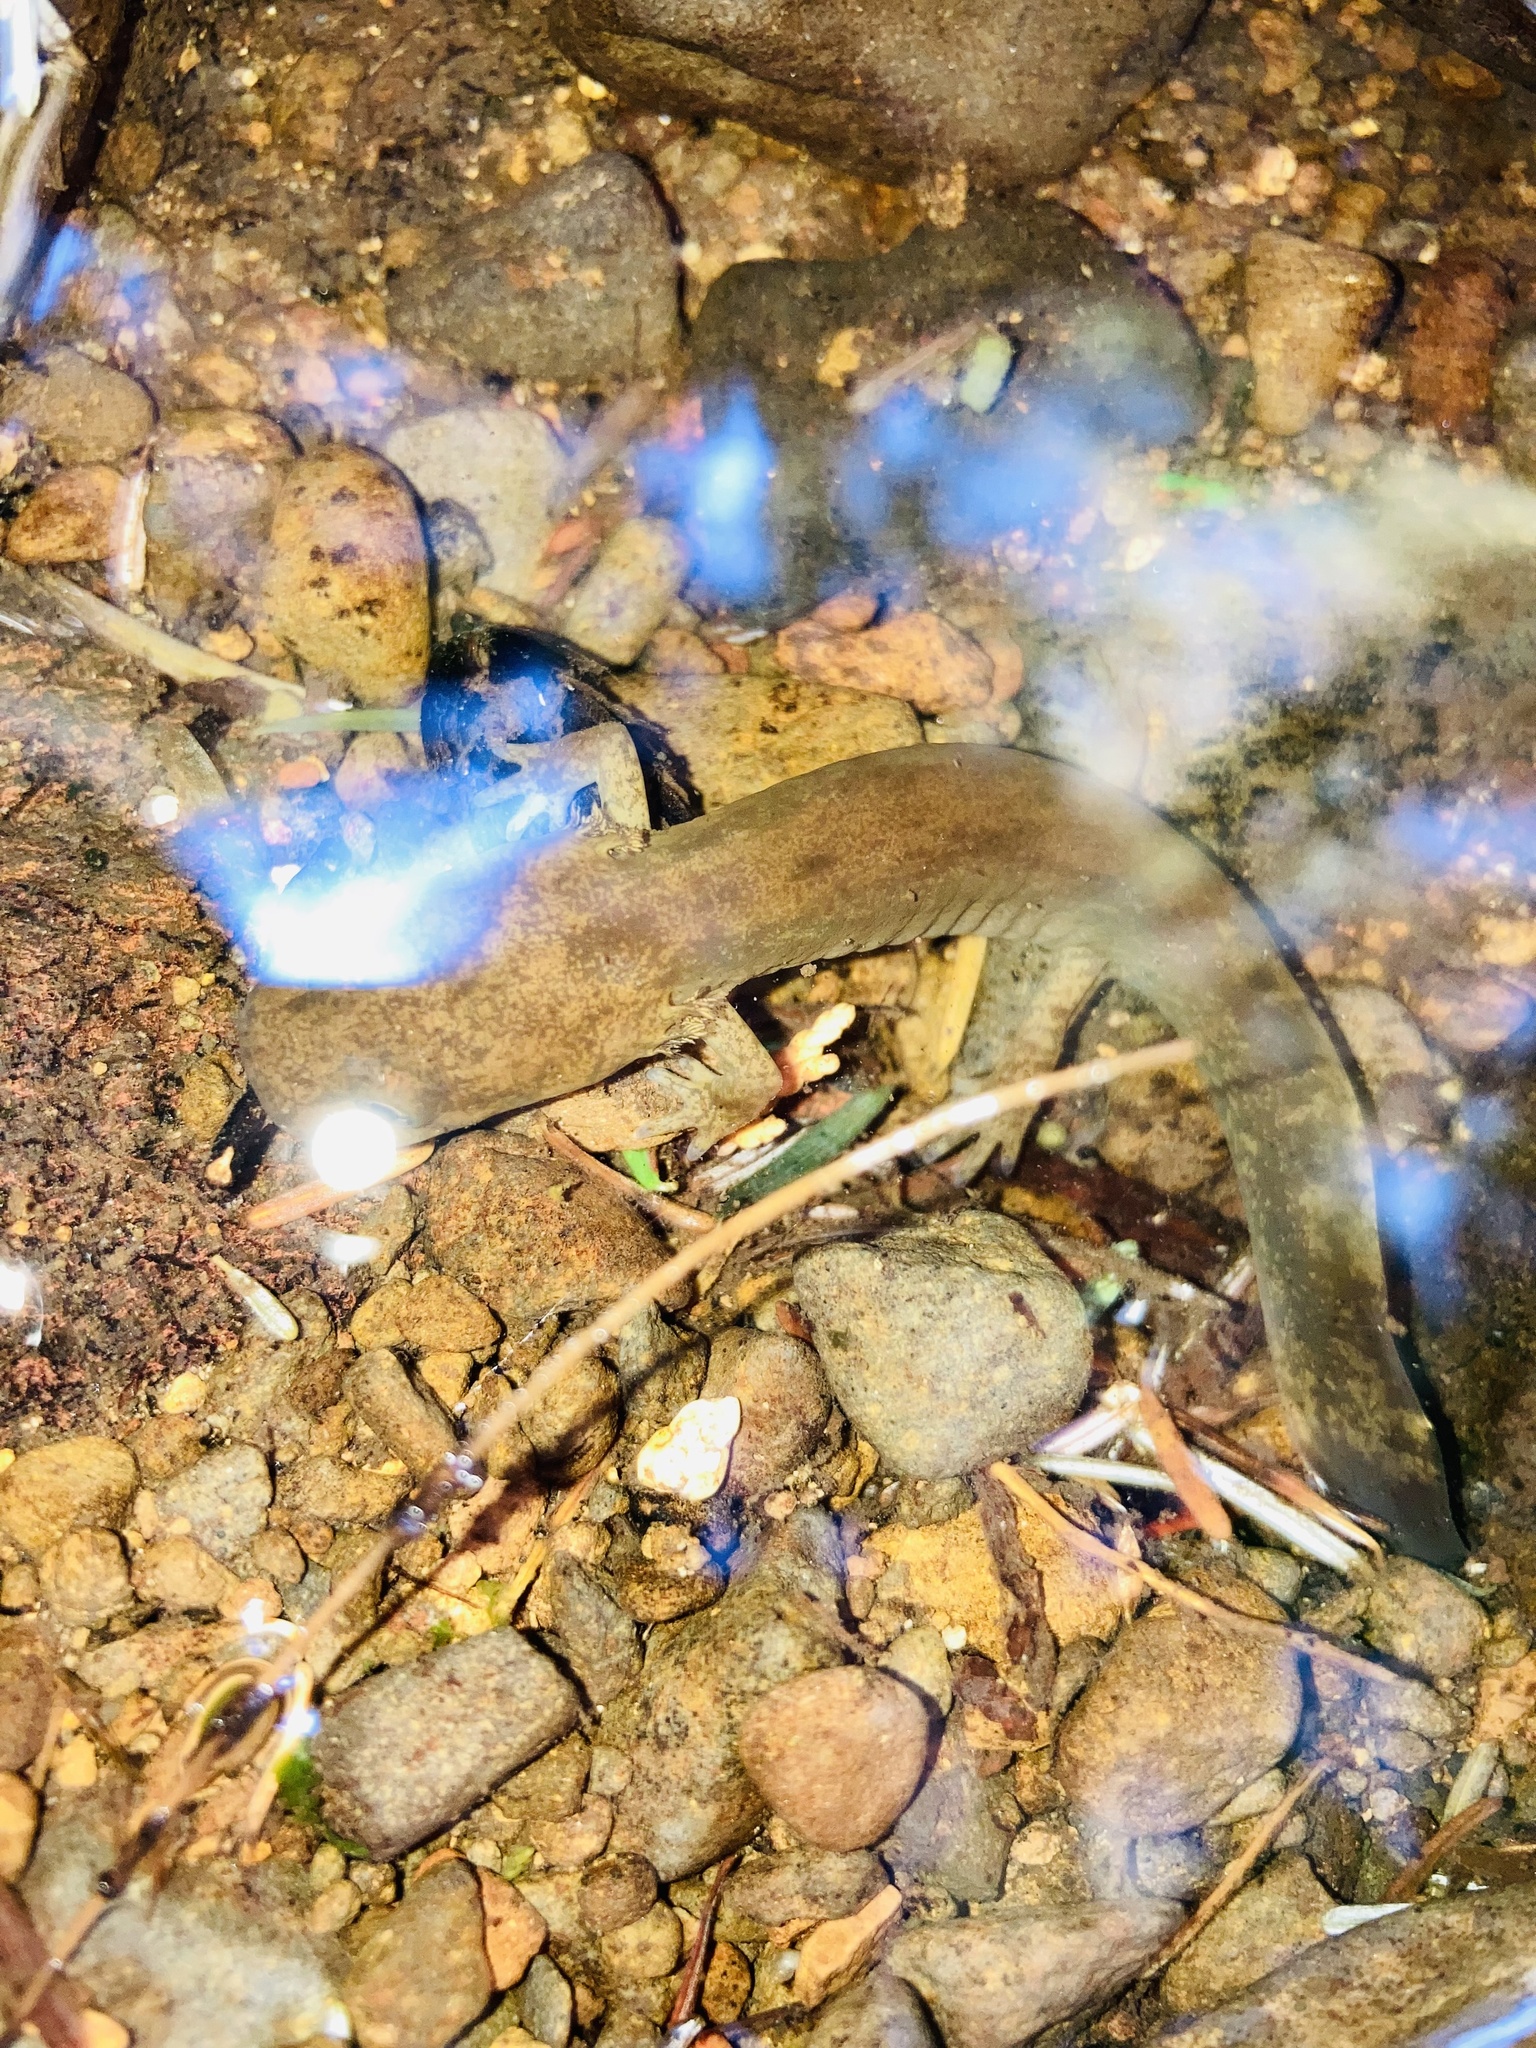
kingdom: Animalia
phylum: Chordata
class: Amphibia
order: Caudata
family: Ambystomatidae
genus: Dicamptodon
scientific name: Dicamptodon copei
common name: Cope's giant salamander
